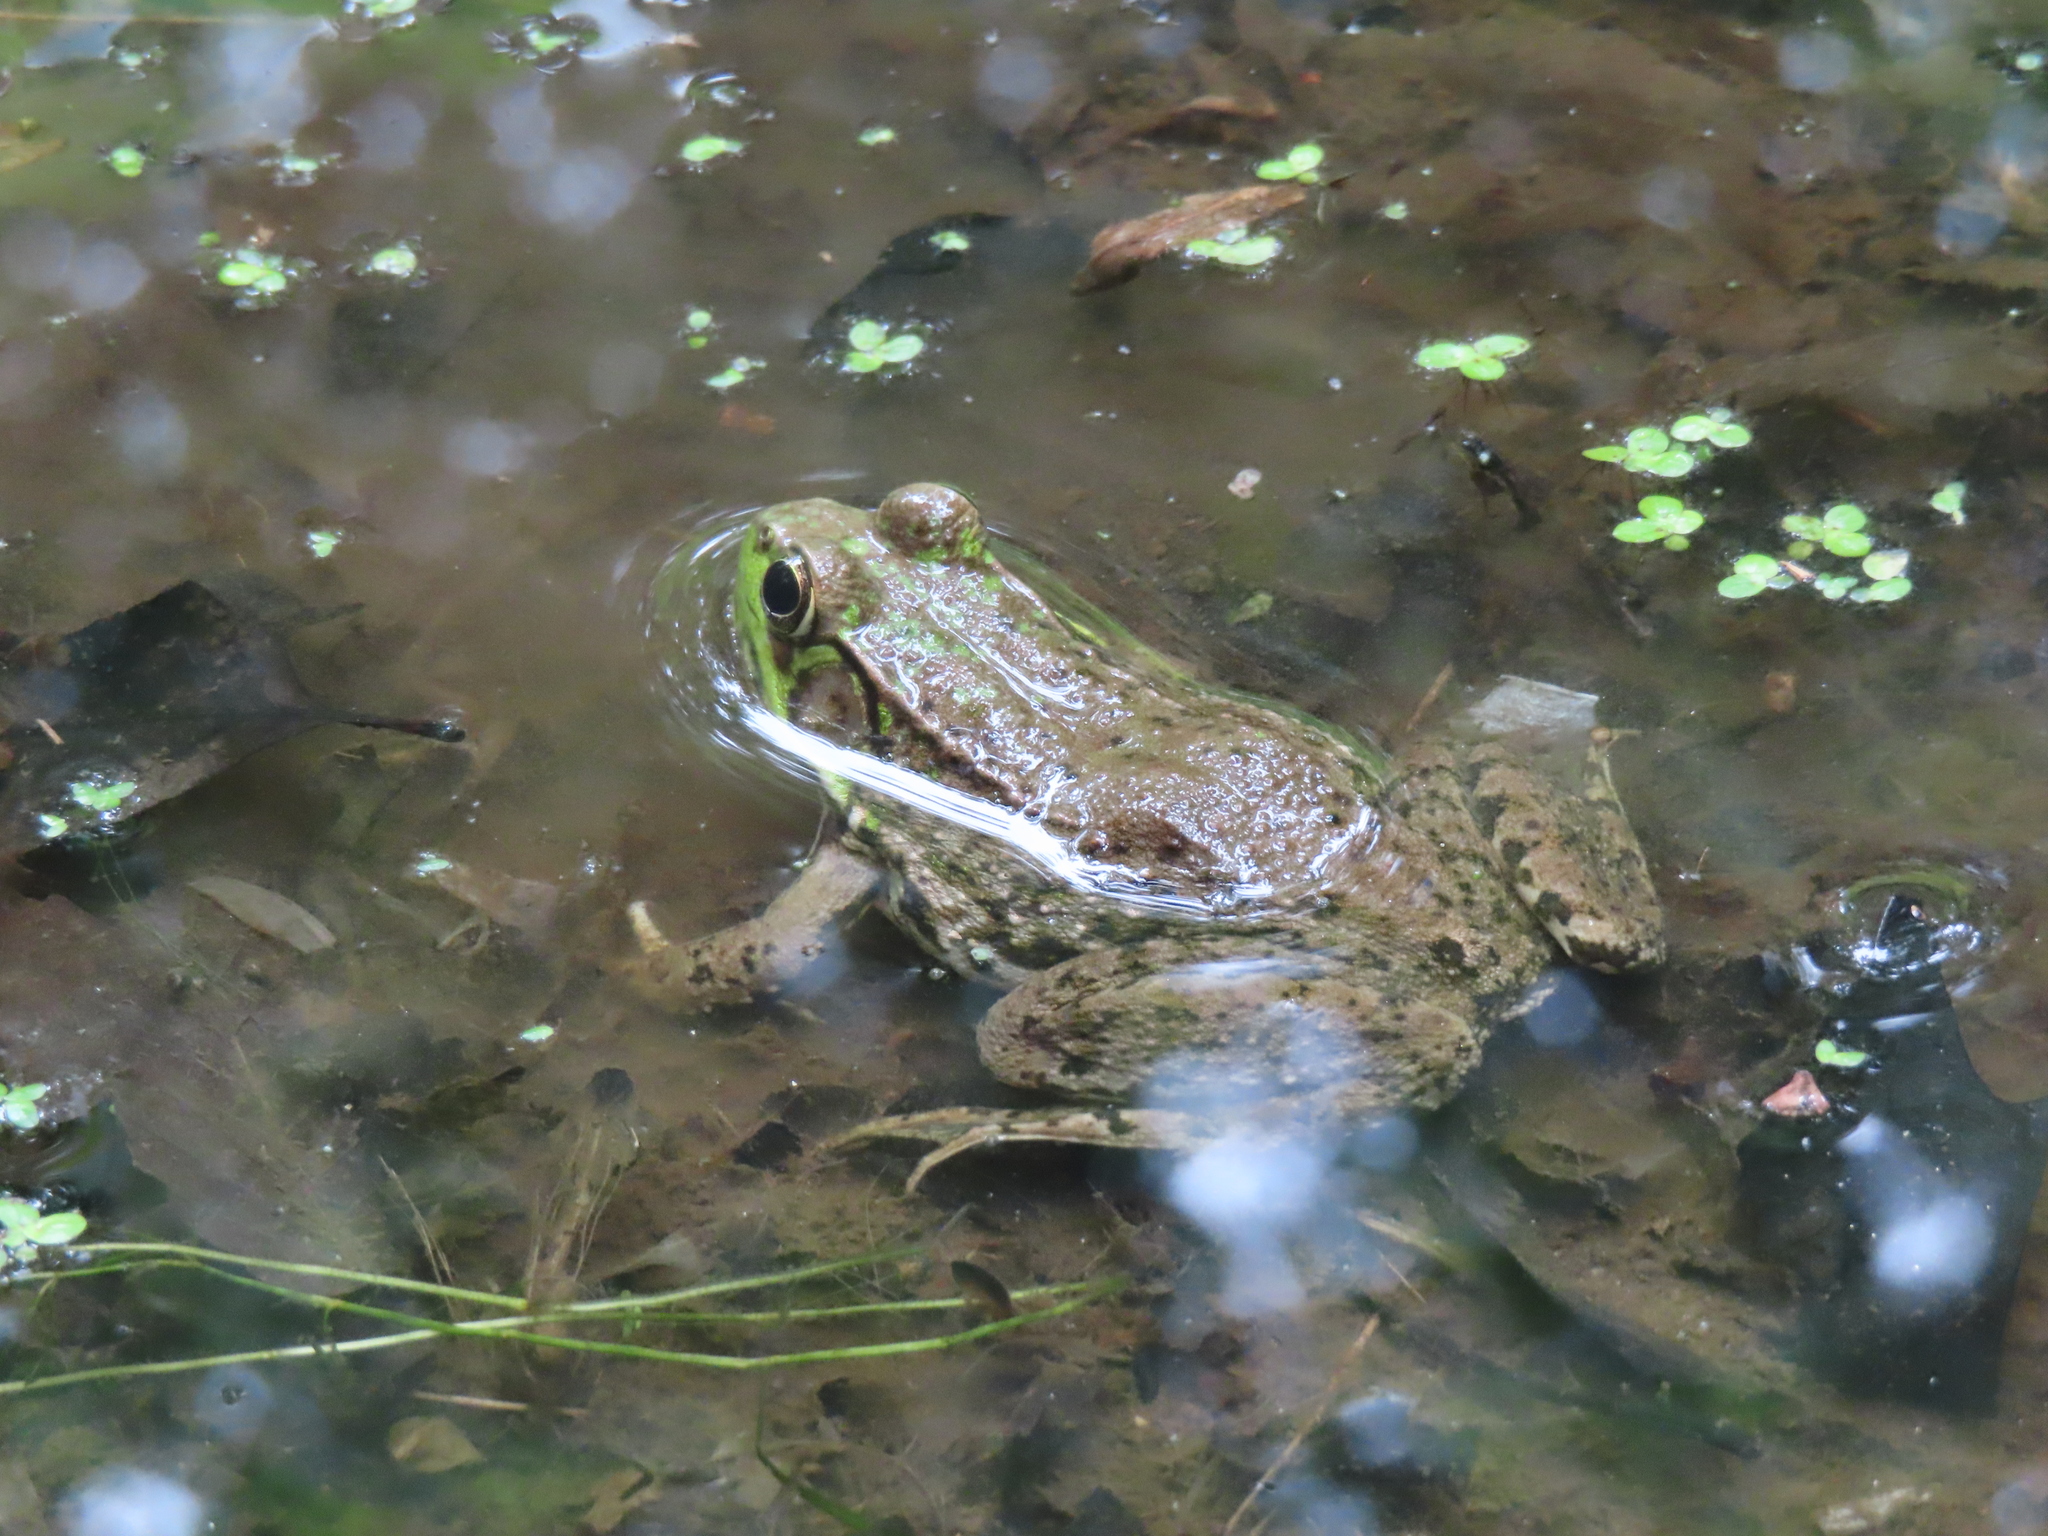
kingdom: Animalia
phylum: Chordata
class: Amphibia
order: Anura
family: Ranidae
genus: Lithobates
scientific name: Lithobates clamitans
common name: Green frog
